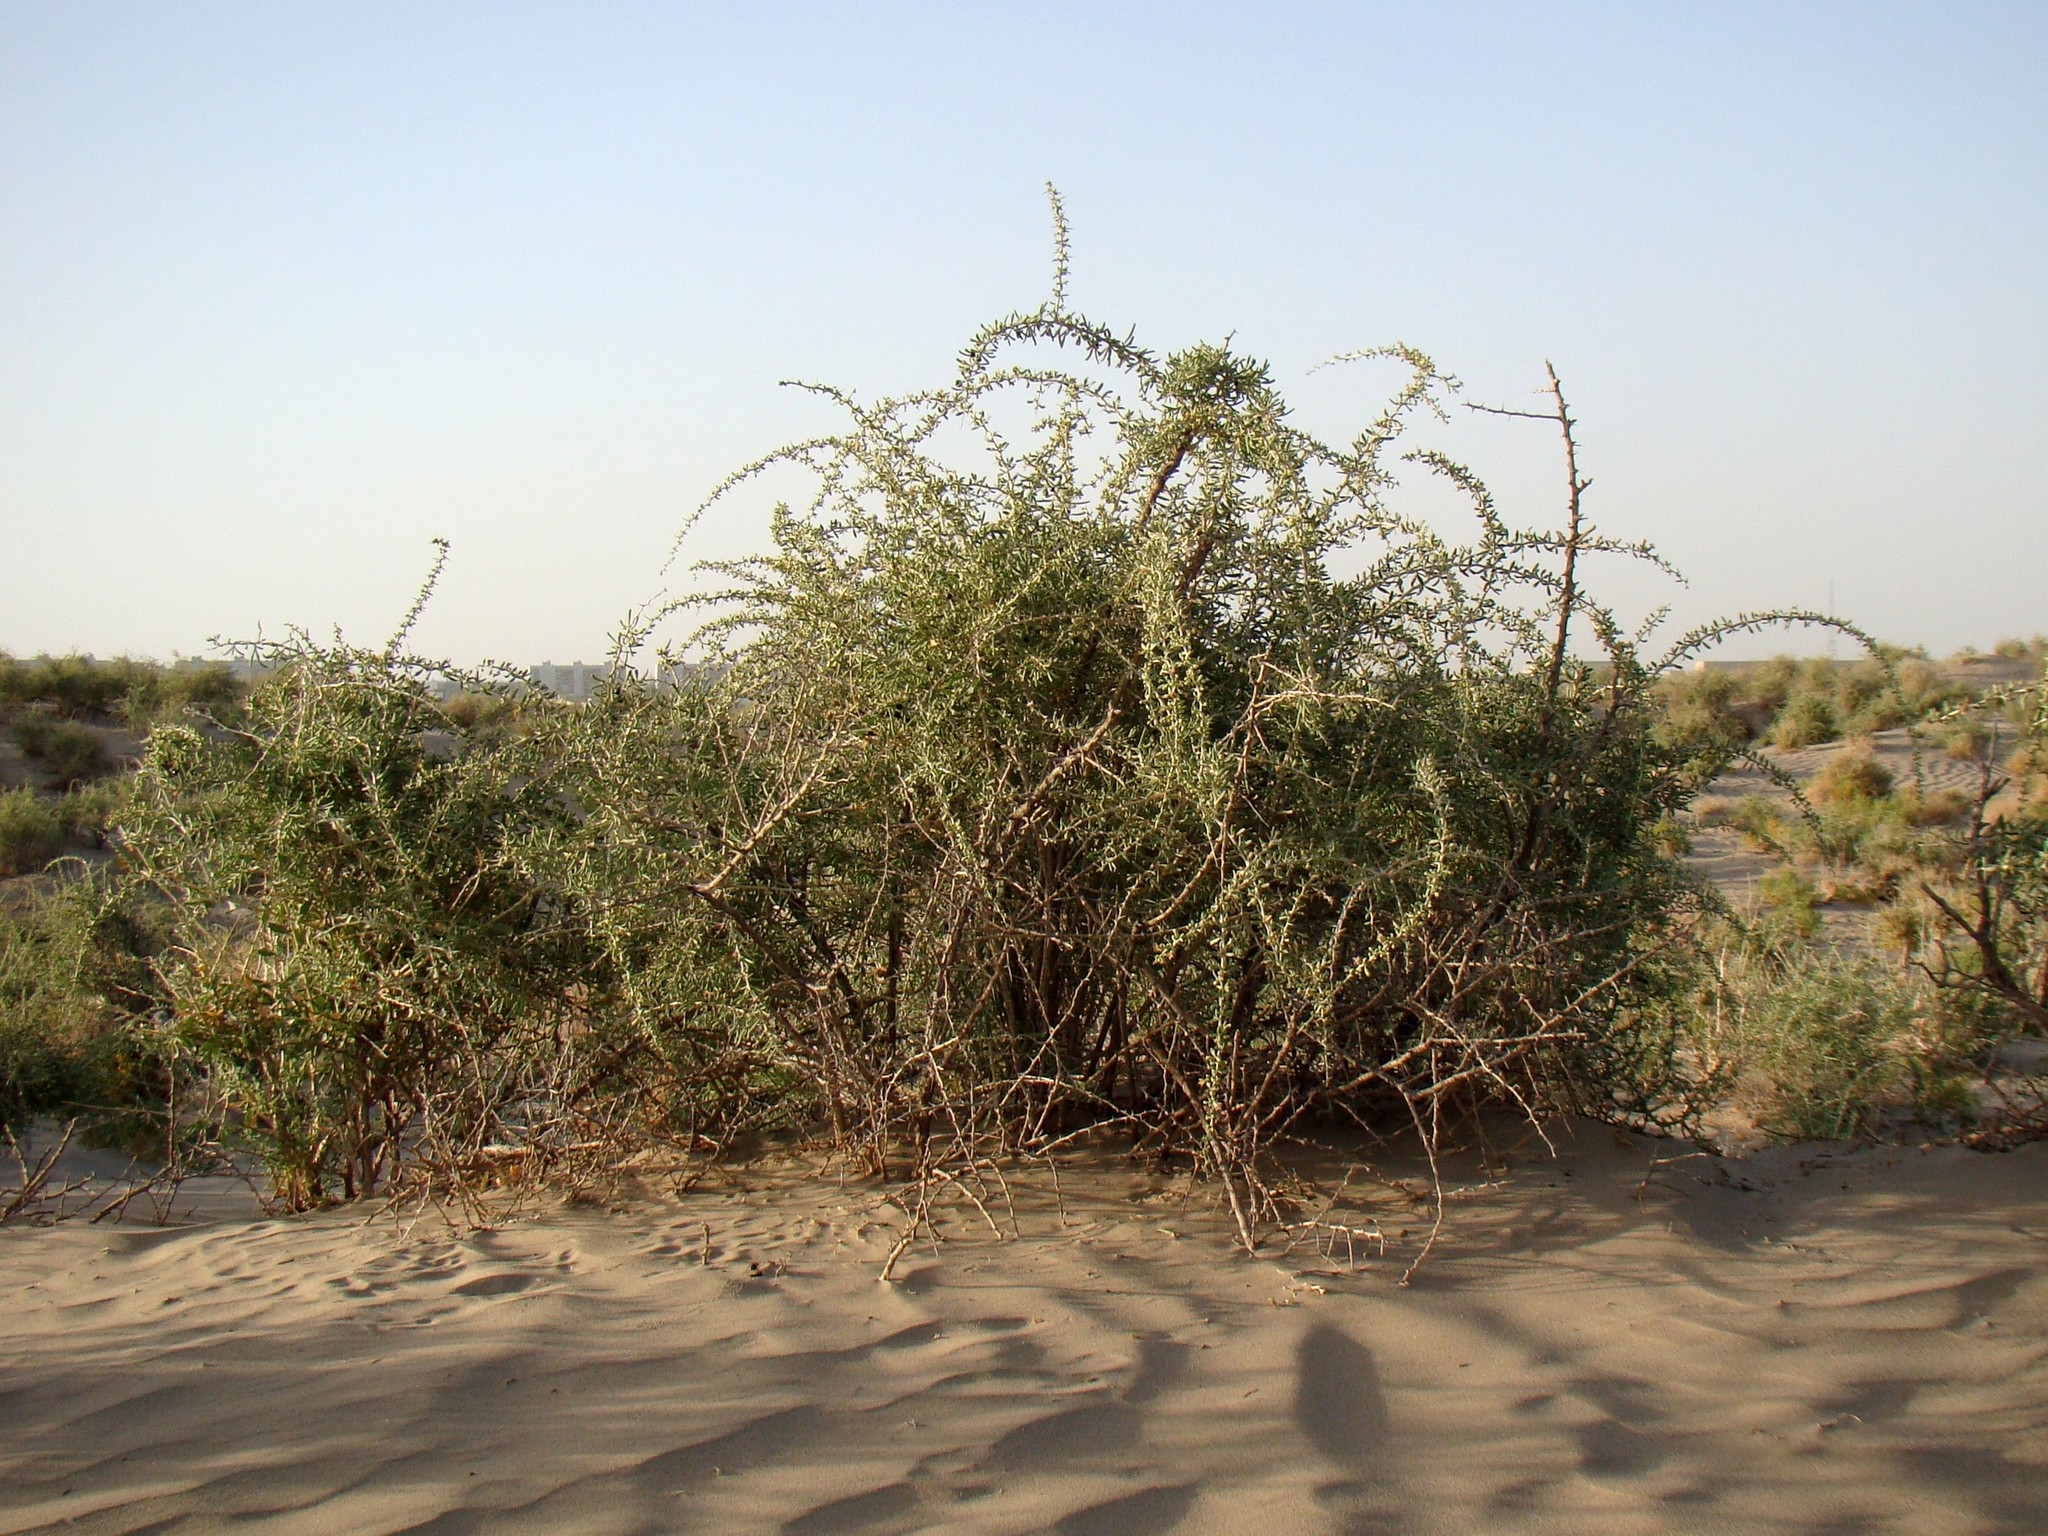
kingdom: Plantae
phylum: Tracheophyta
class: Magnoliopsida
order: Solanales
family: Solanaceae
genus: Lycium
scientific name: Lycium ruthenicum
